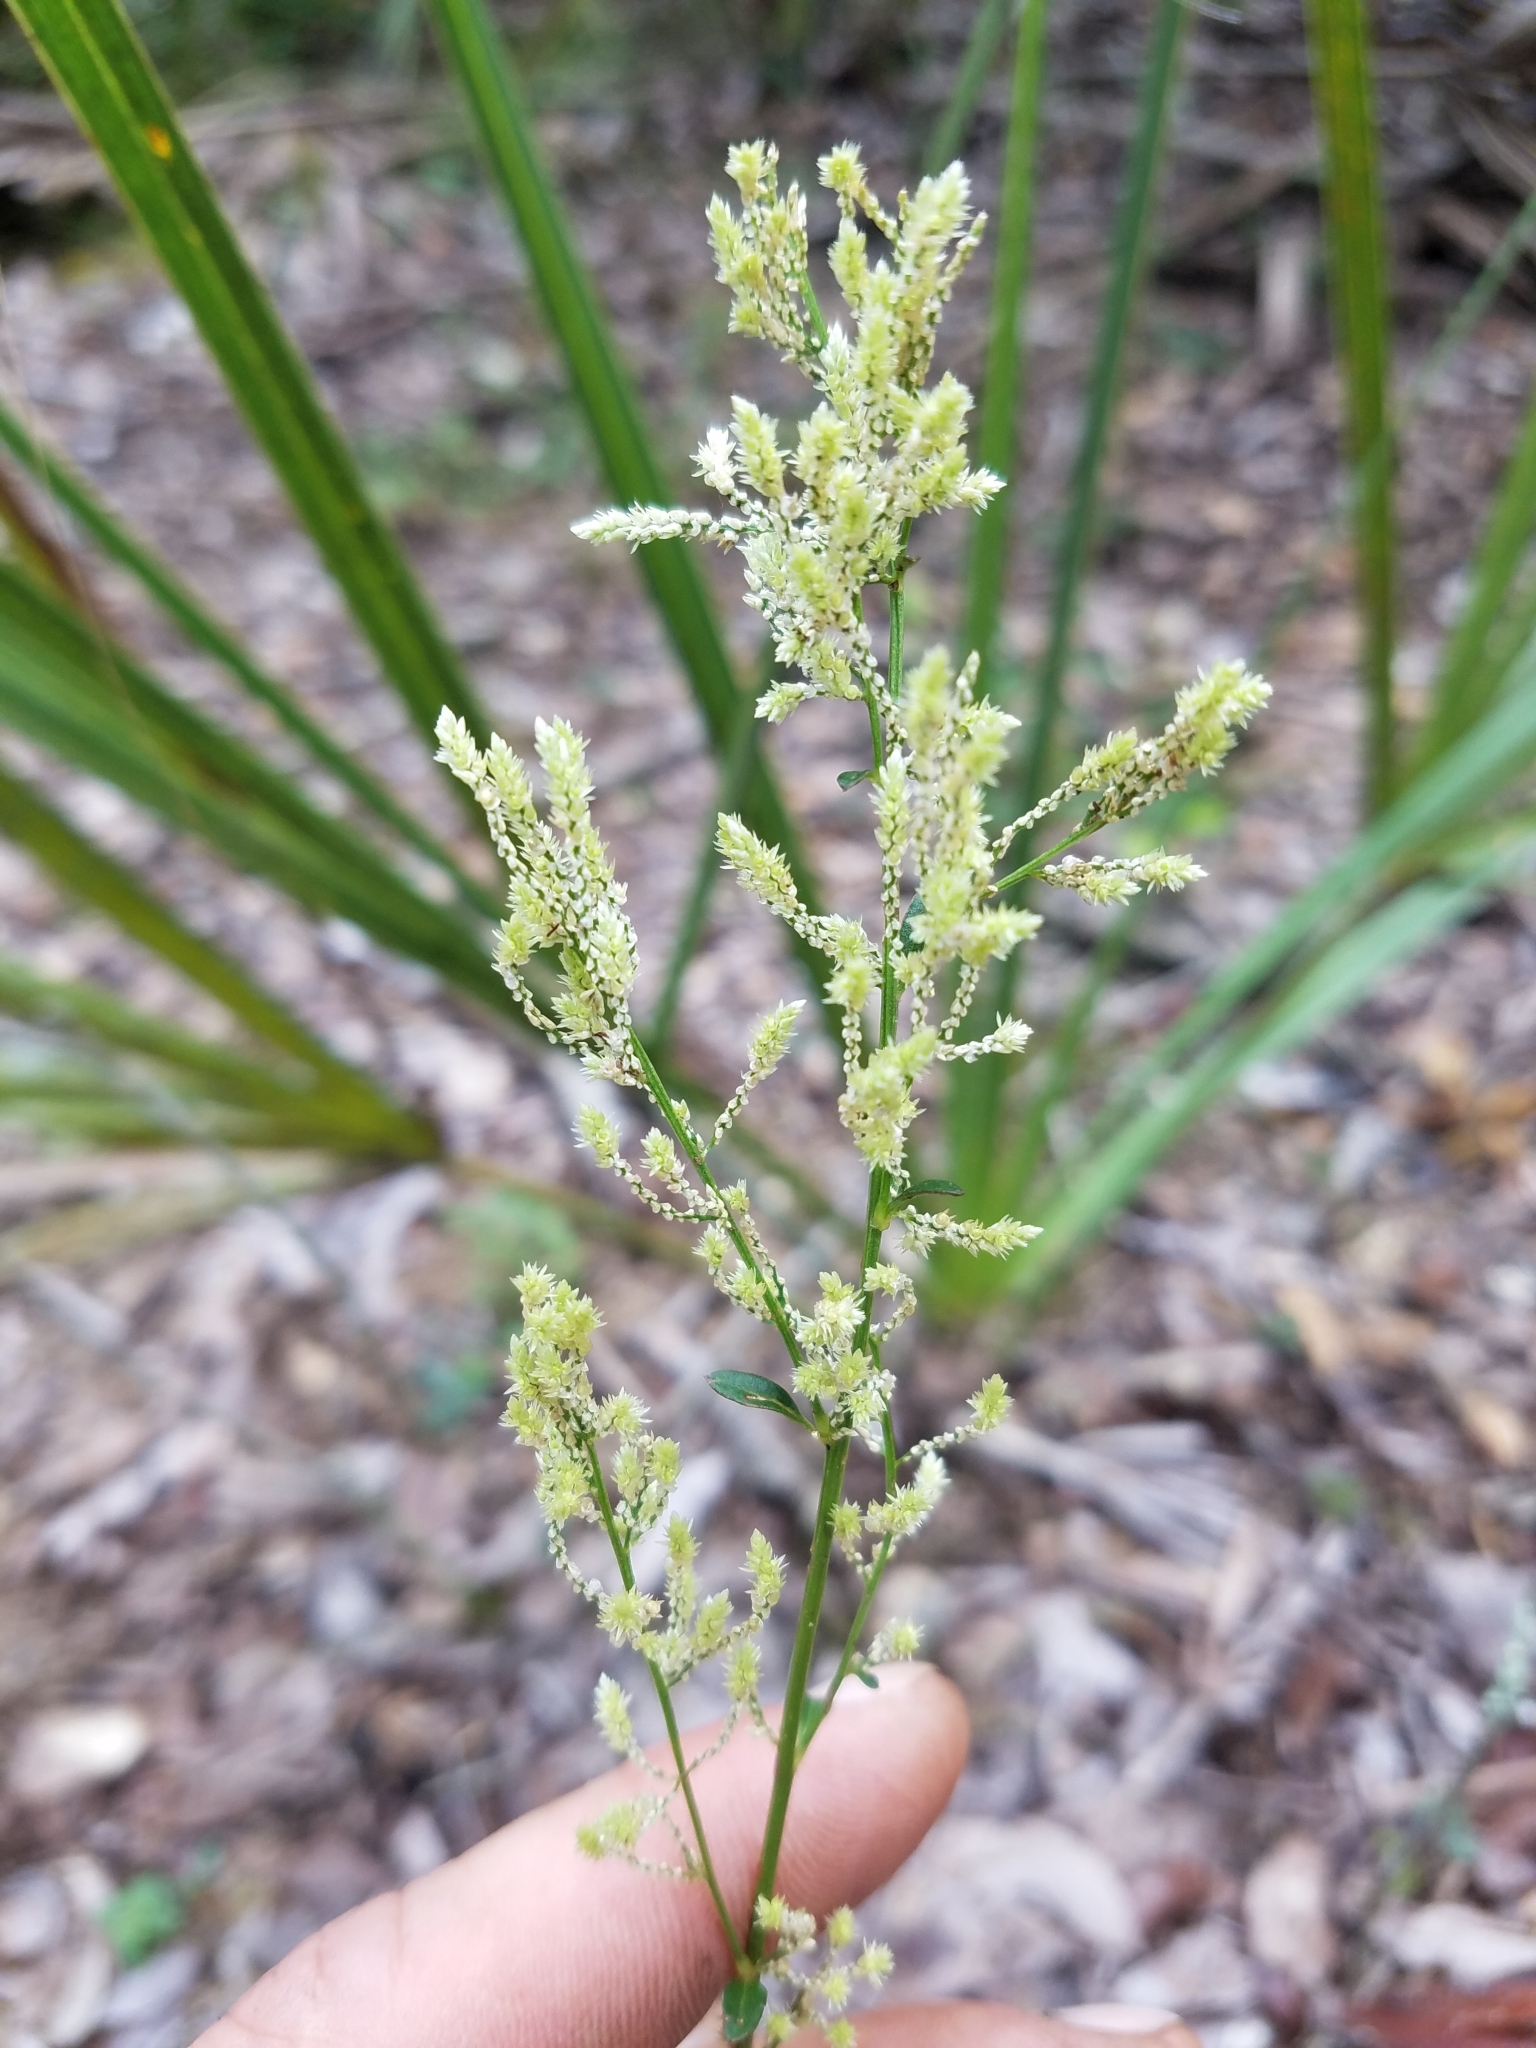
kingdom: Plantae
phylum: Tracheophyta
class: Magnoliopsida
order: Caryophyllales
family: Amaranthaceae
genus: Iresine
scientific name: Iresine diffusa
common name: Juba's-bush
